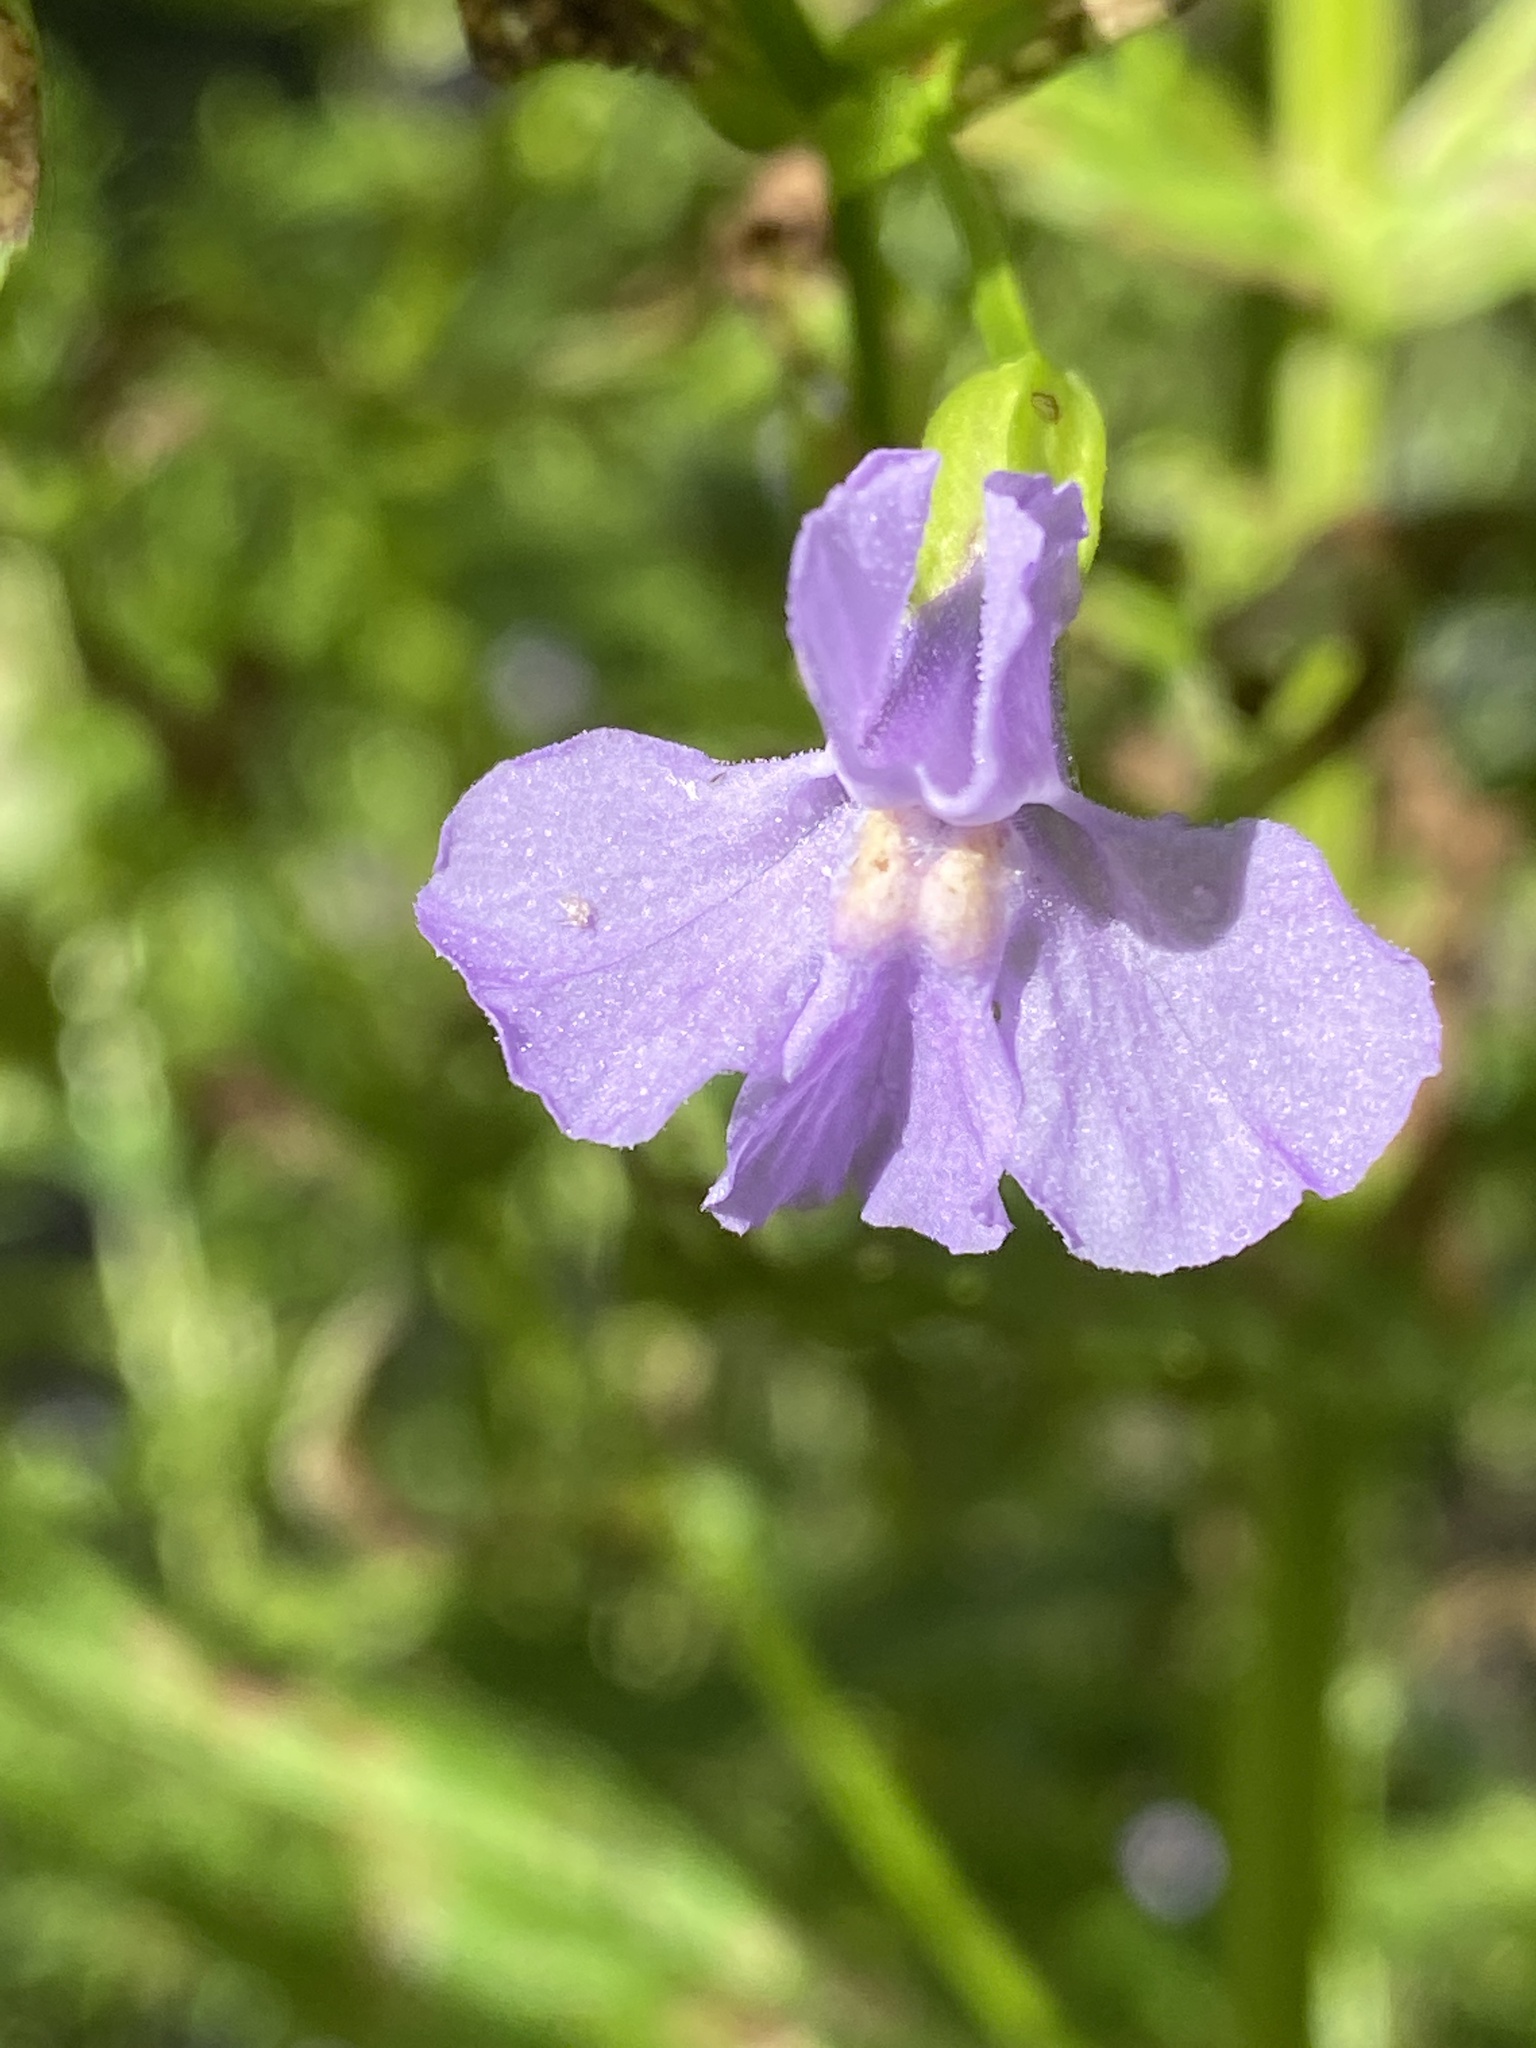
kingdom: Plantae
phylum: Tracheophyta
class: Magnoliopsida
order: Lamiales
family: Phrymaceae
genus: Mimulus
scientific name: Mimulus ringens
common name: Allegheny monkeyflower
